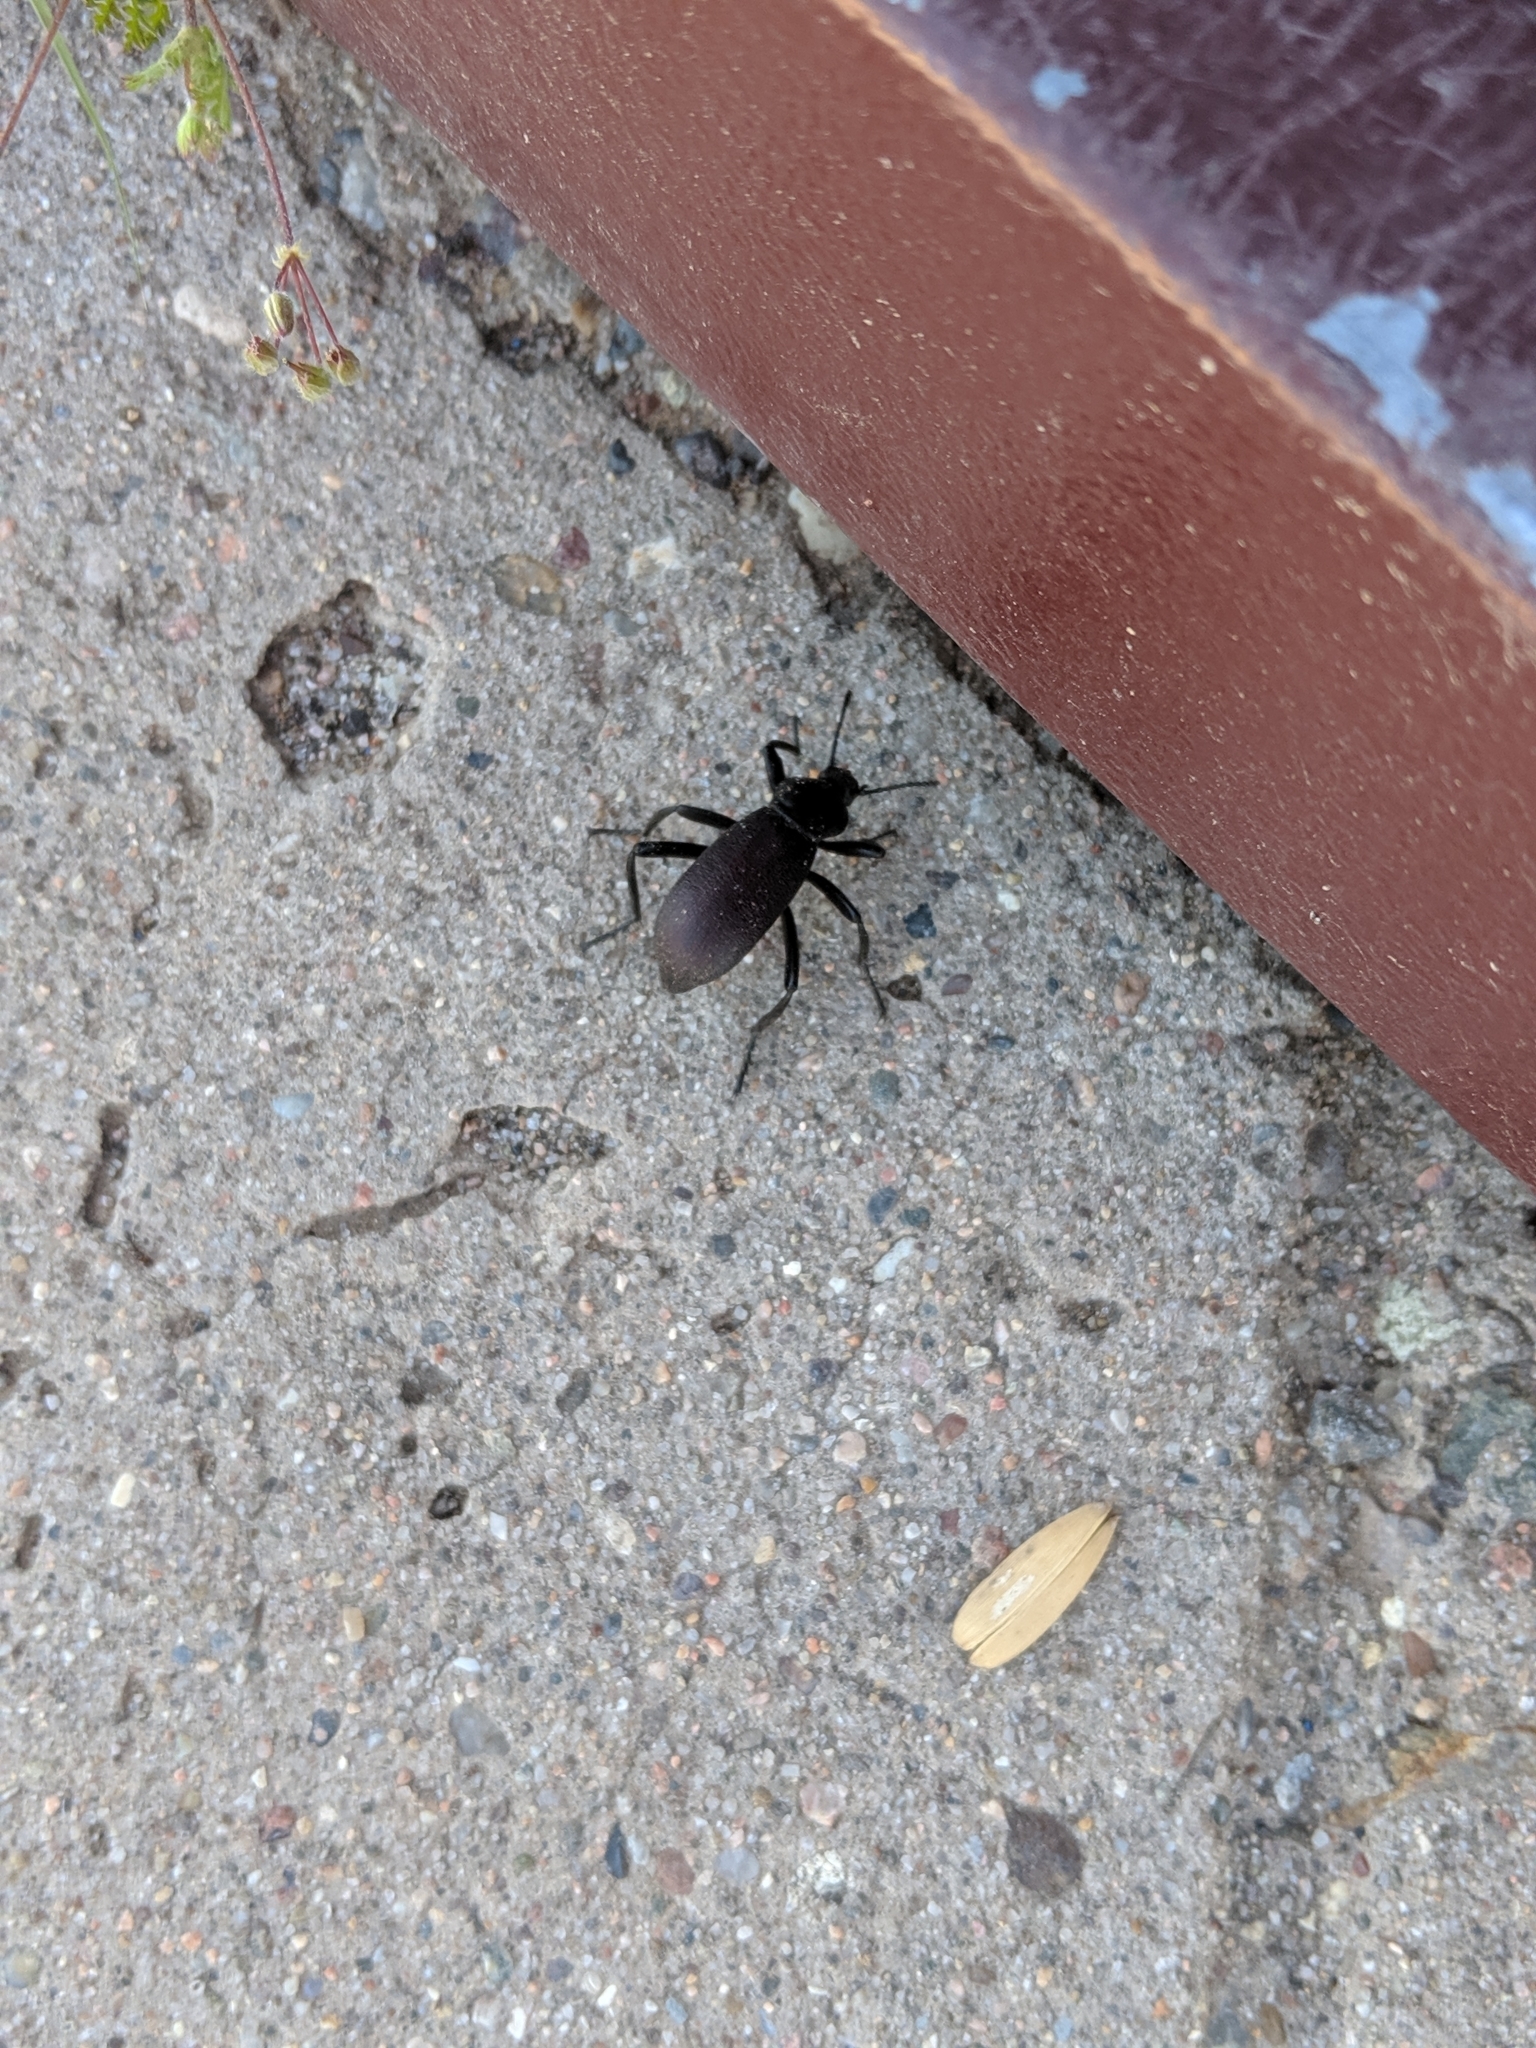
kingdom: Animalia
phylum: Arthropoda
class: Insecta
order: Coleoptera
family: Tenebrionidae
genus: Eleodes
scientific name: Eleodes obscura
